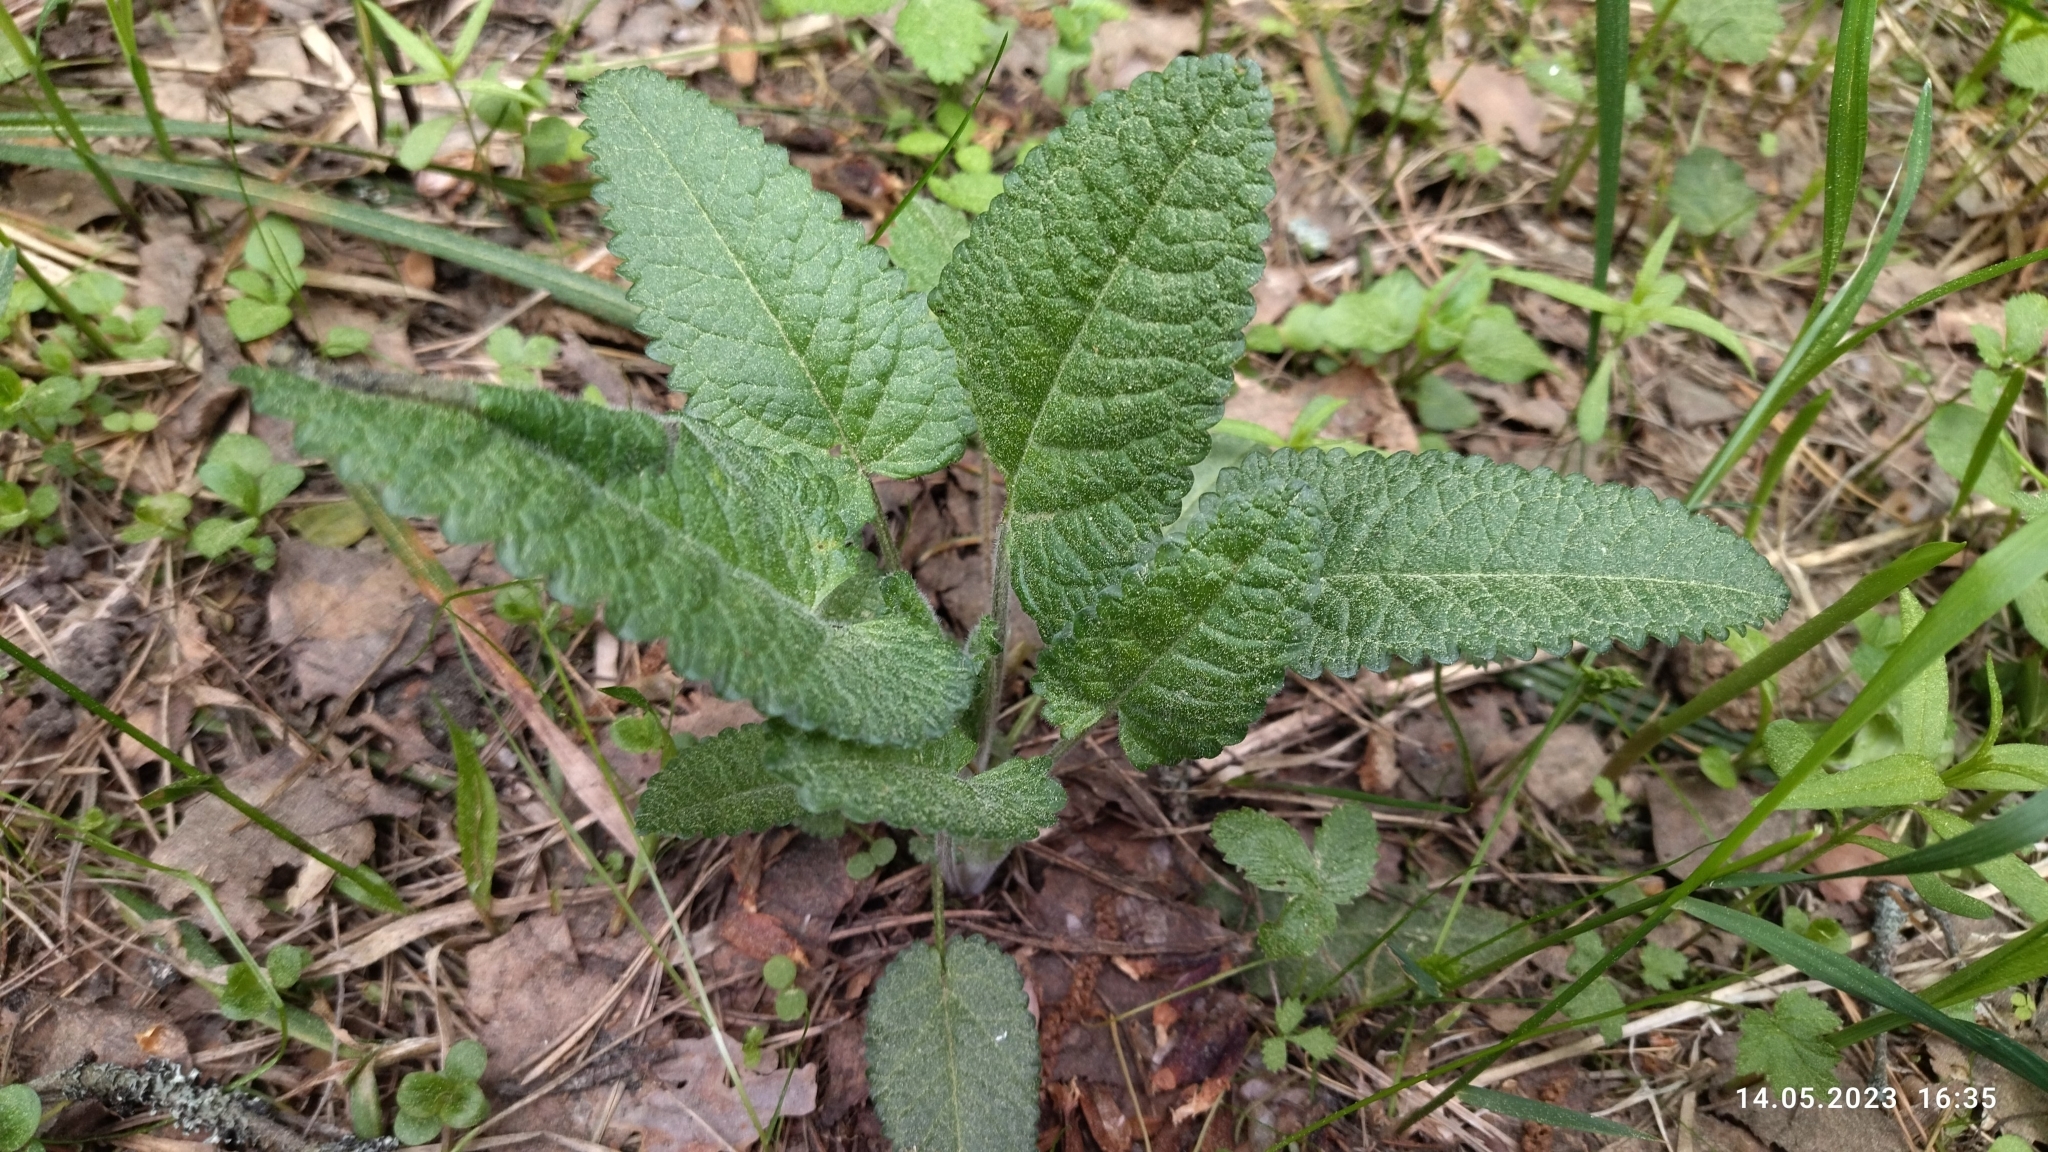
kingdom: Plantae
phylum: Tracheophyta
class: Magnoliopsida
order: Lamiales
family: Lamiaceae
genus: Betonica
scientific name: Betonica officinalis
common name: Bishop's-wort
